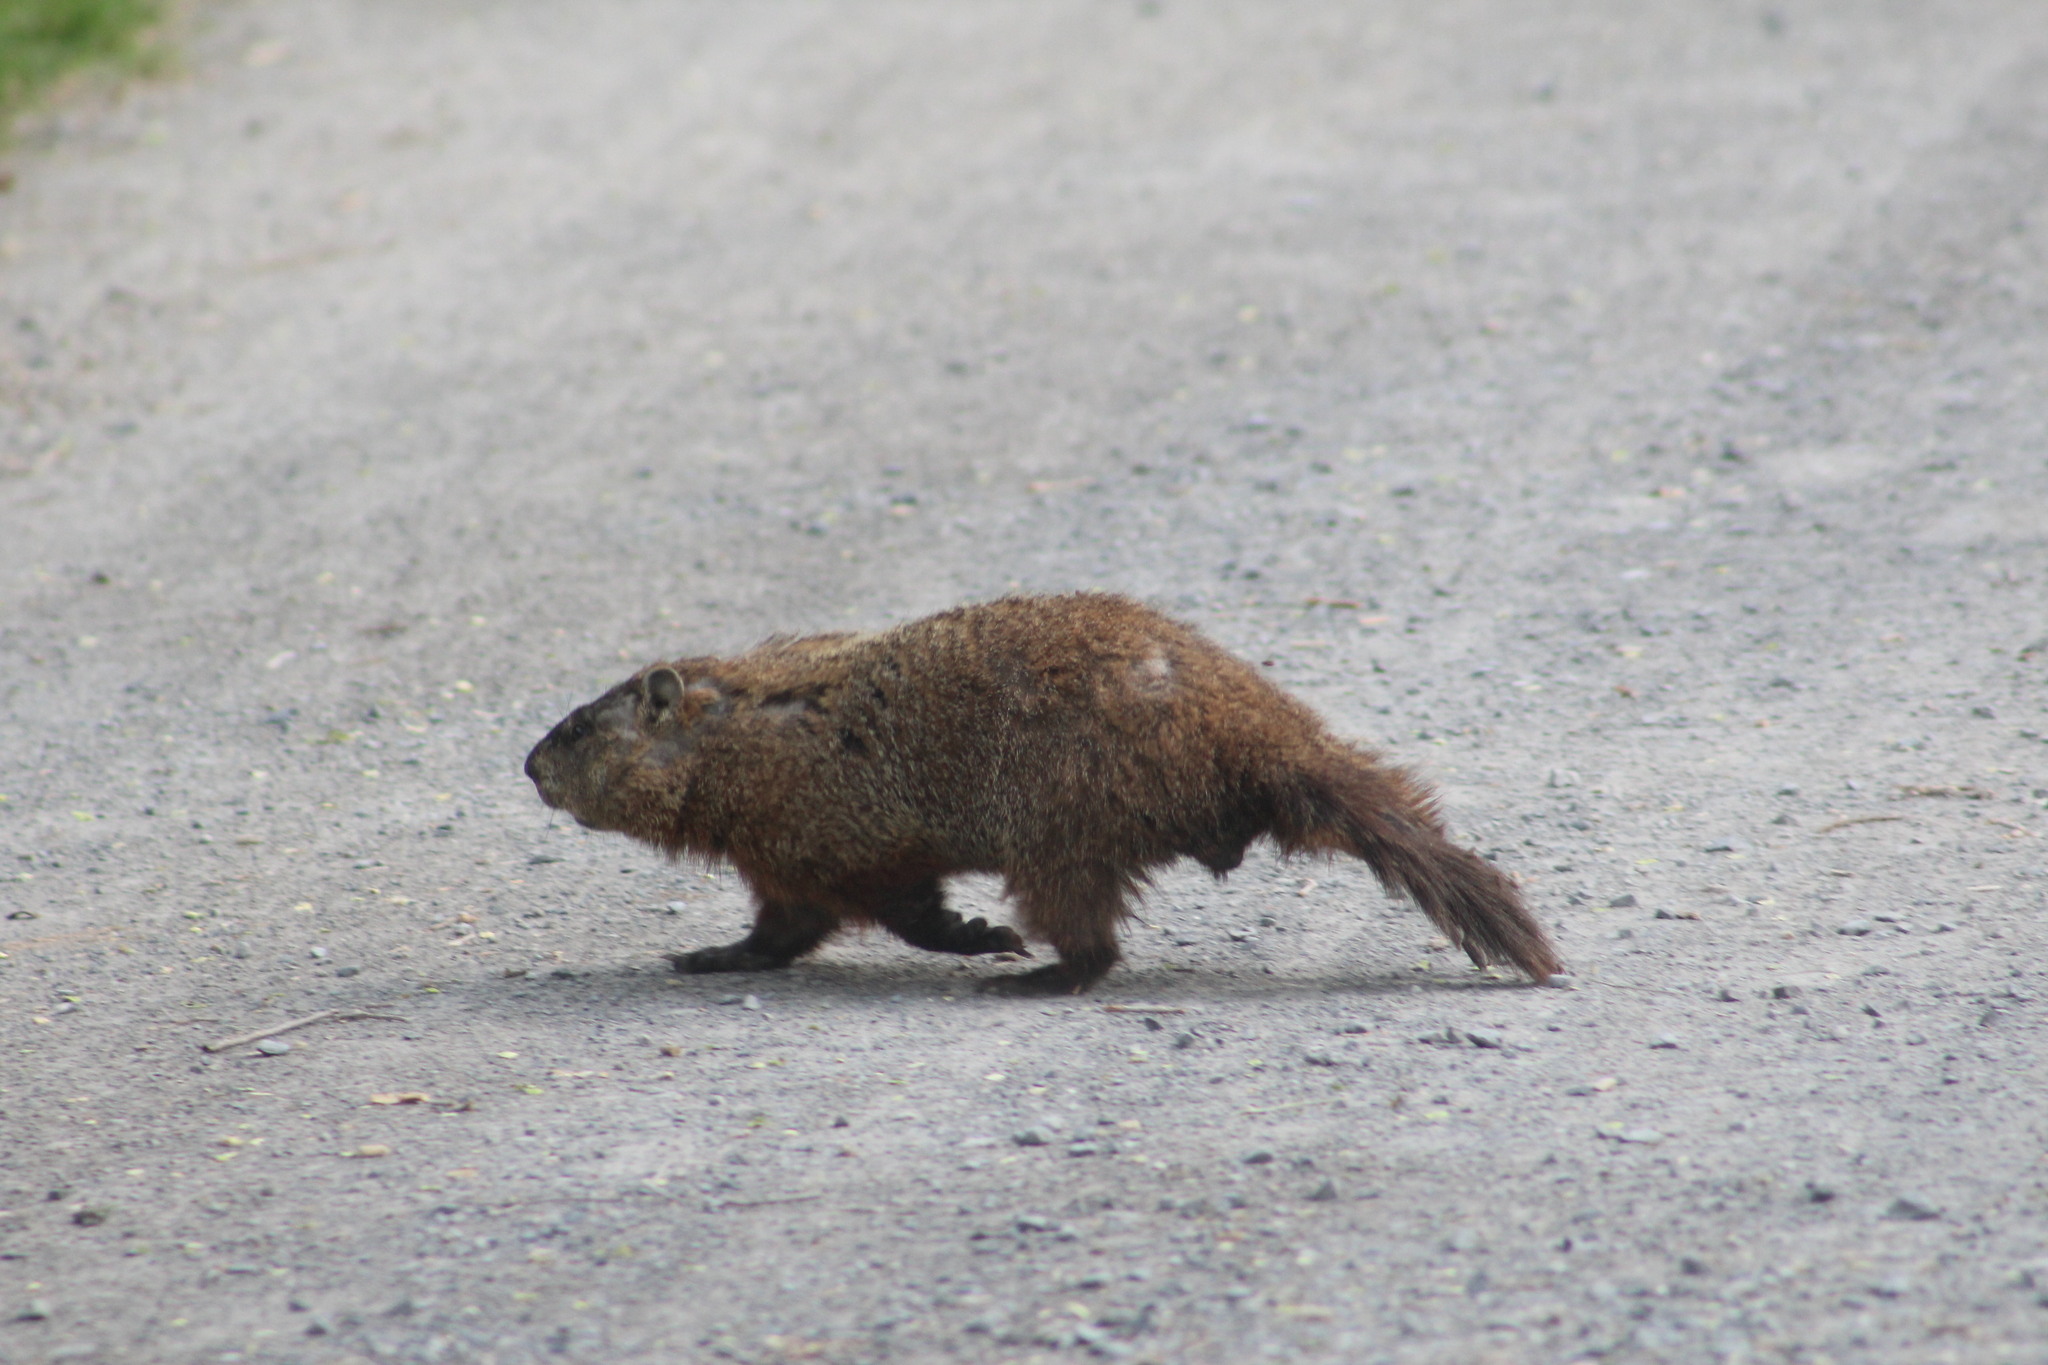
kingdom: Animalia
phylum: Chordata
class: Mammalia
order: Rodentia
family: Sciuridae
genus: Marmota
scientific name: Marmota monax
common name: Groundhog
